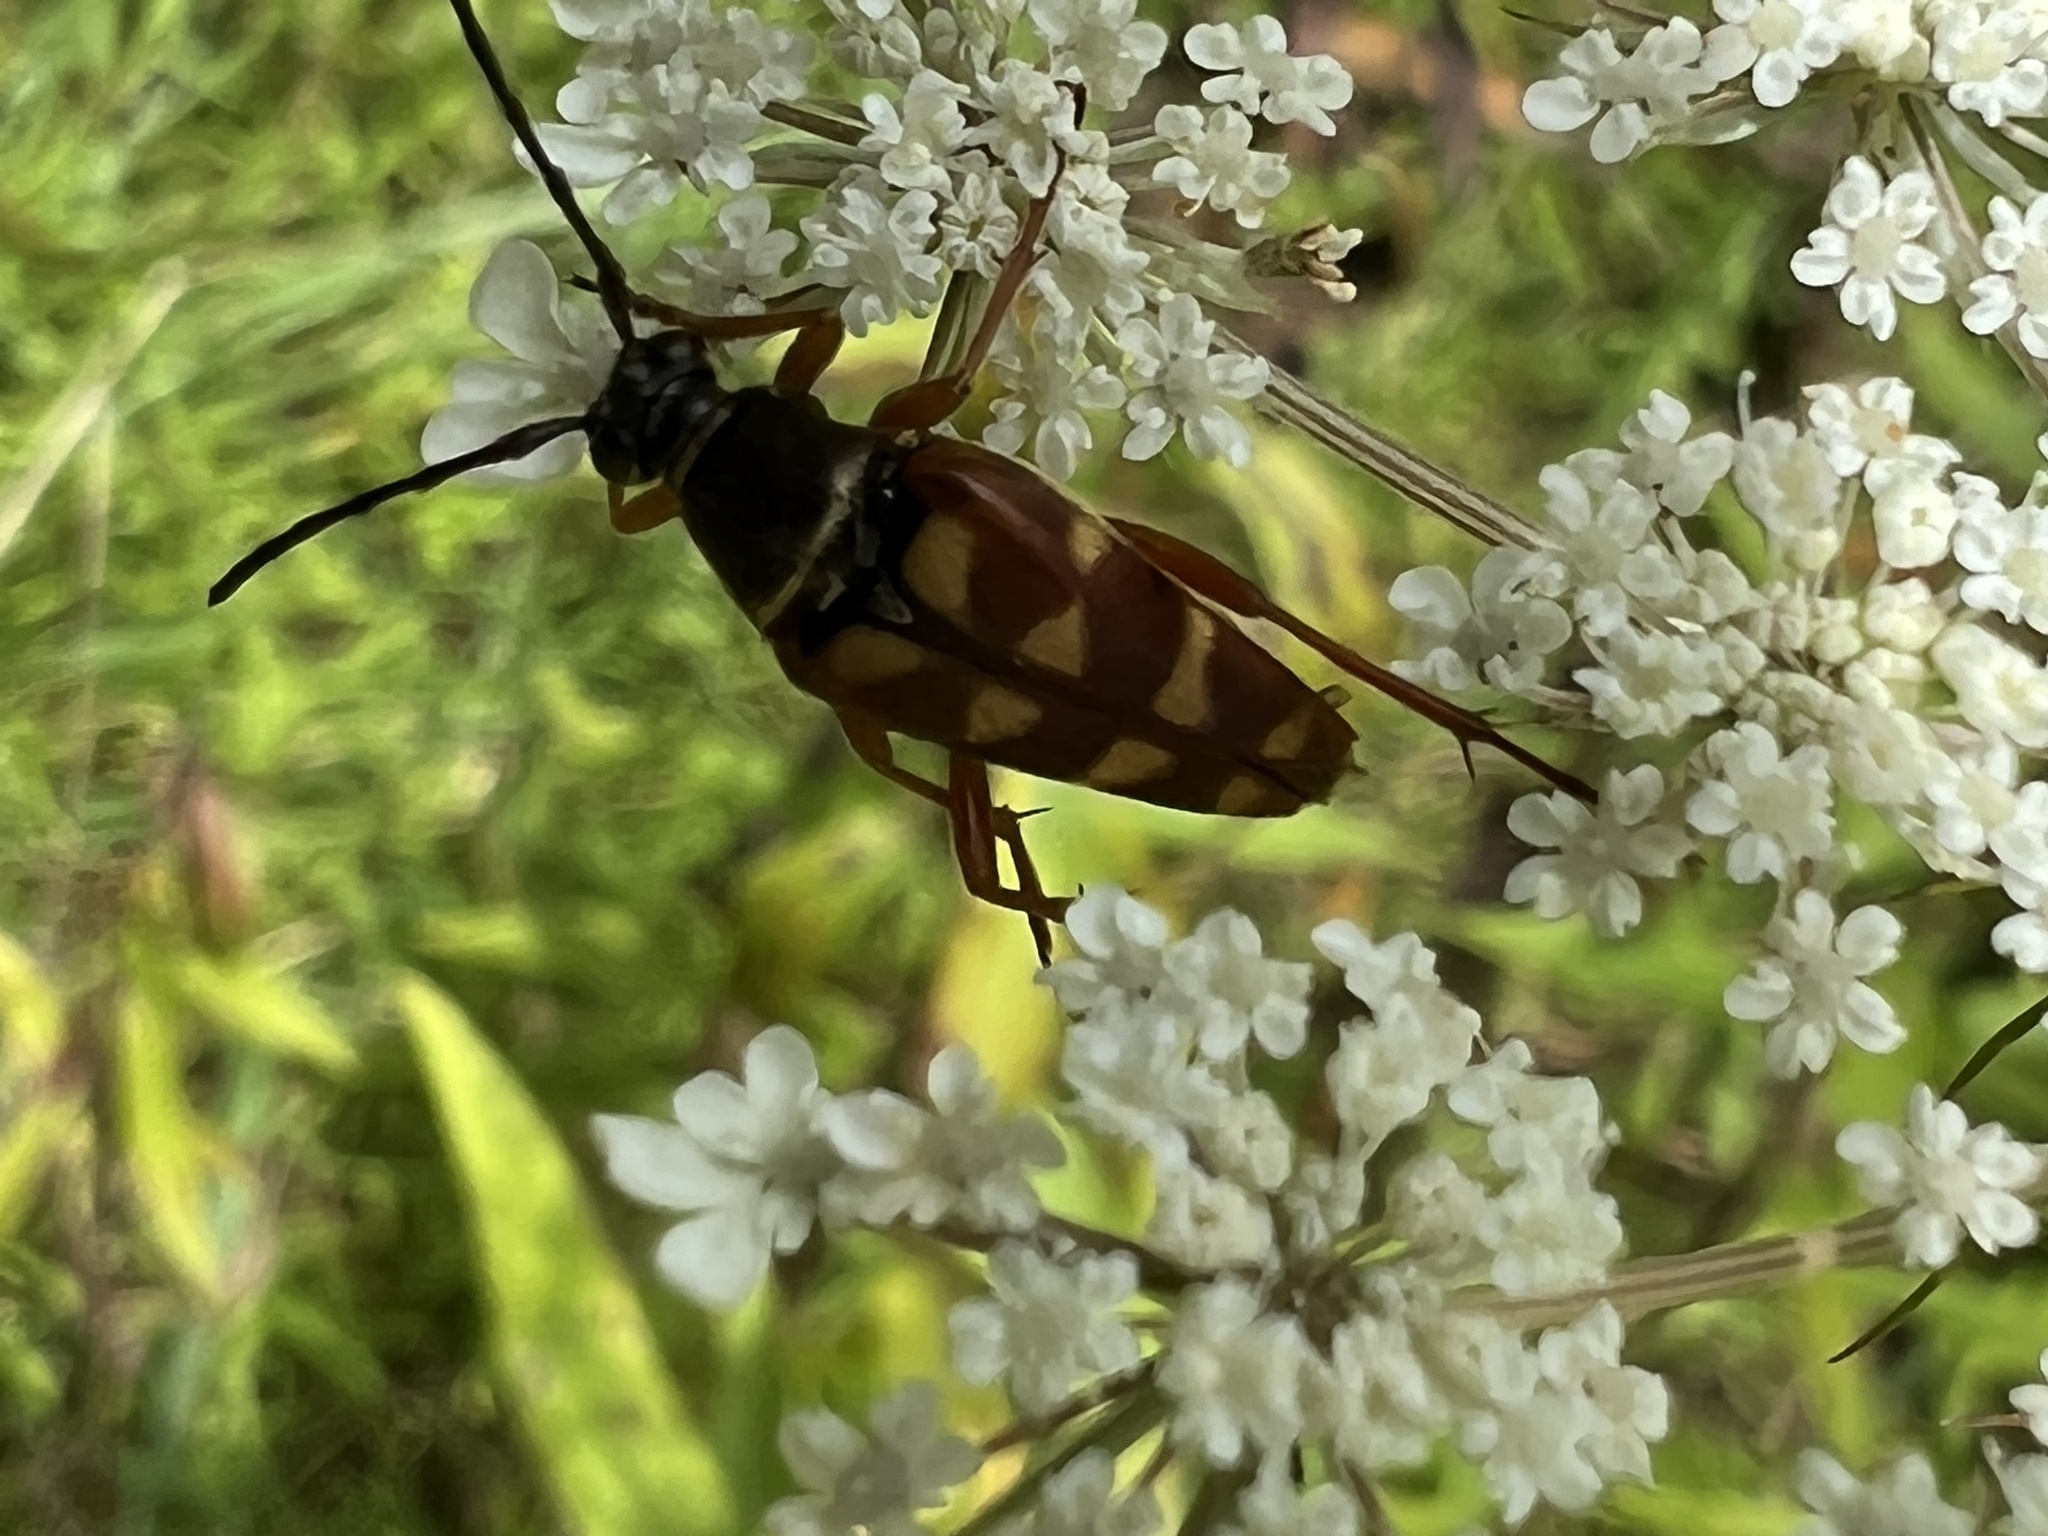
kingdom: Animalia
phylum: Arthropoda
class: Insecta
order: Coleoptera
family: Cerambycidae
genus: Typocerus
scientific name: Typocerus velutinus
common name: Banded longhorn beetle
